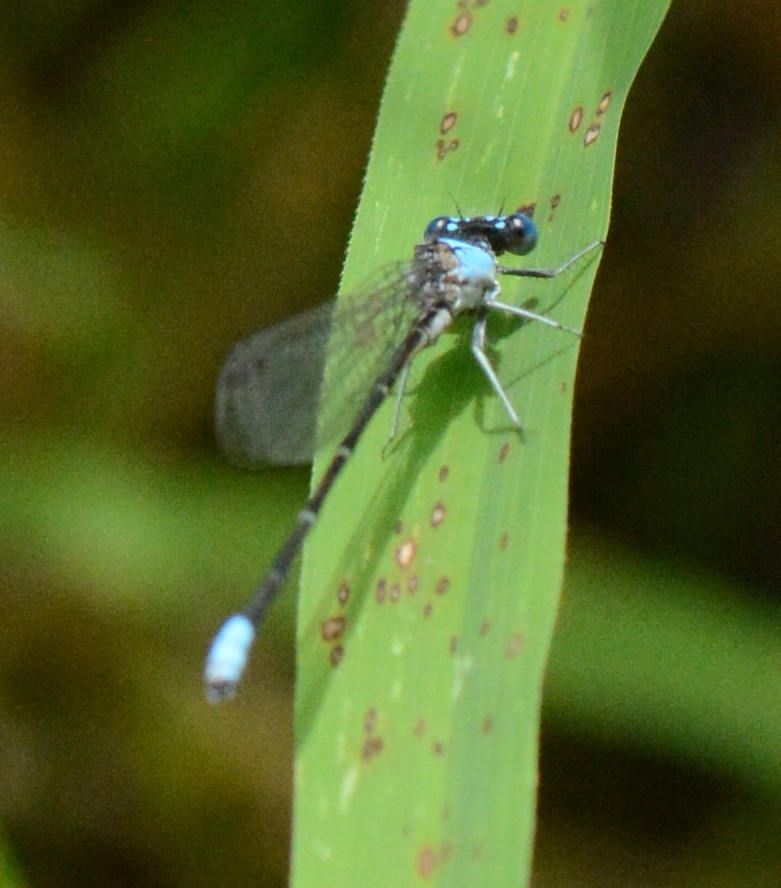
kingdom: Animalia
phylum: Arthropoda
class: Insecta
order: Odonata
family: Coenagrionidae
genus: Argia
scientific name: Argia apicalis
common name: Blue-fronted dancer
